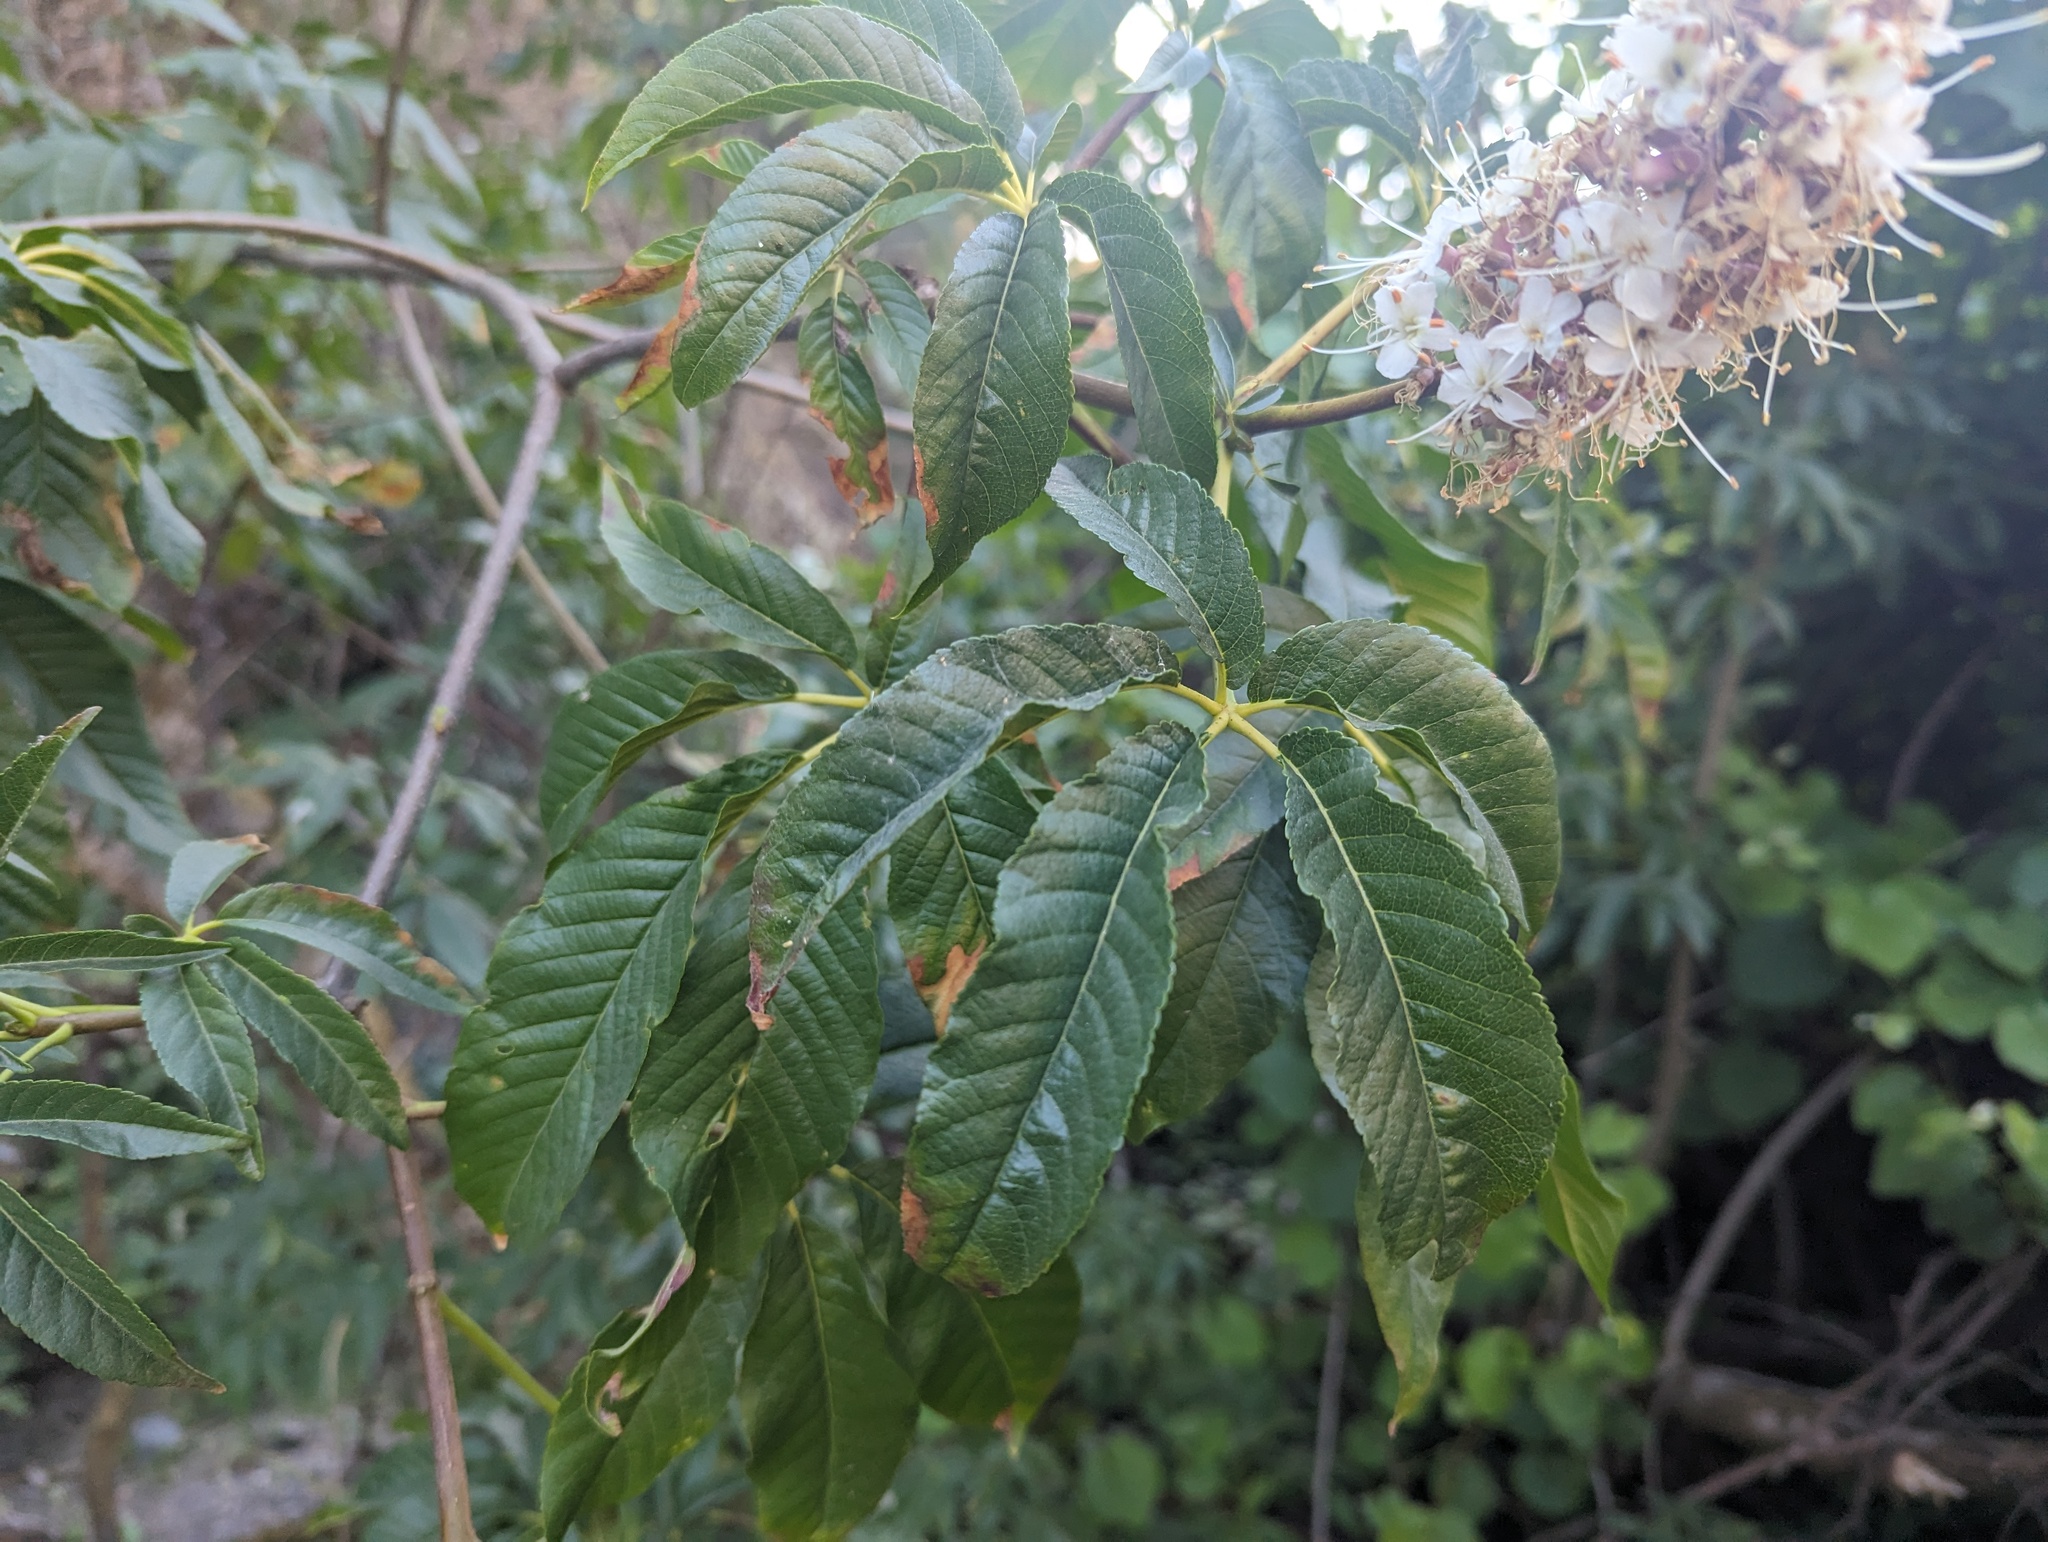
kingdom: Plantae
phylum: Tracheophyta
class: Magnoliopsida
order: Sapindales
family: Sapindaceae
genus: Aesculus
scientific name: Aesculus californica
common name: California buckeye
